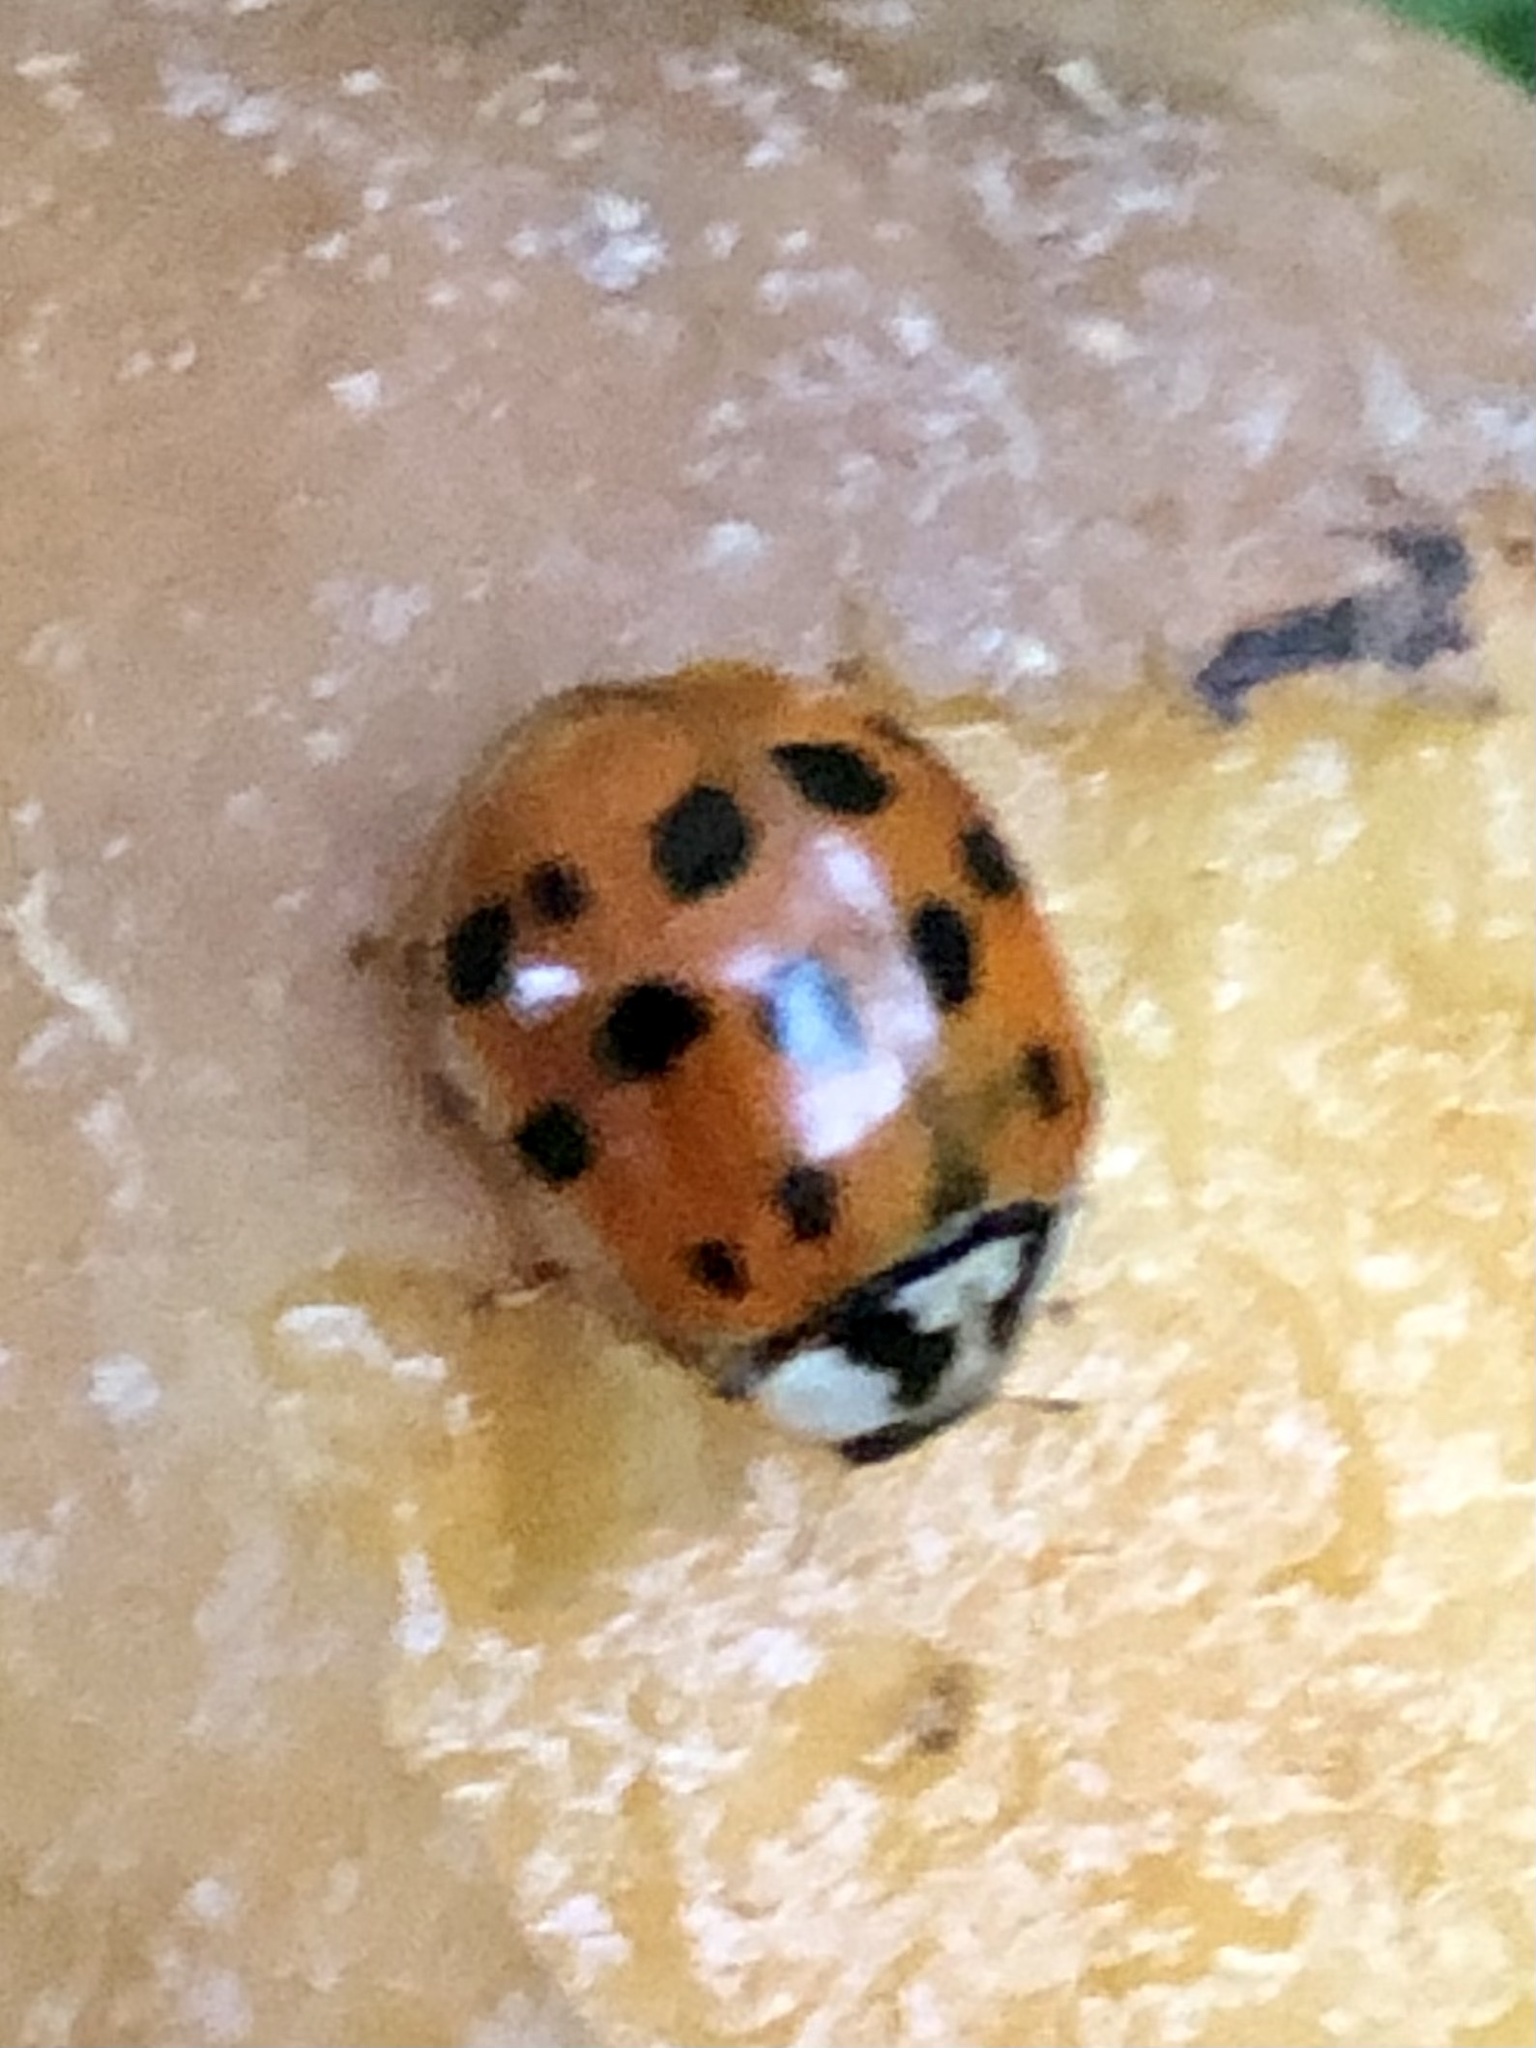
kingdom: Animalia
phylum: Arthropoda
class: Insecta
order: Coleoptera
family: Coccinellidae
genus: Harmonia
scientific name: Harmonia axyridis
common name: Harlequin ladybird
